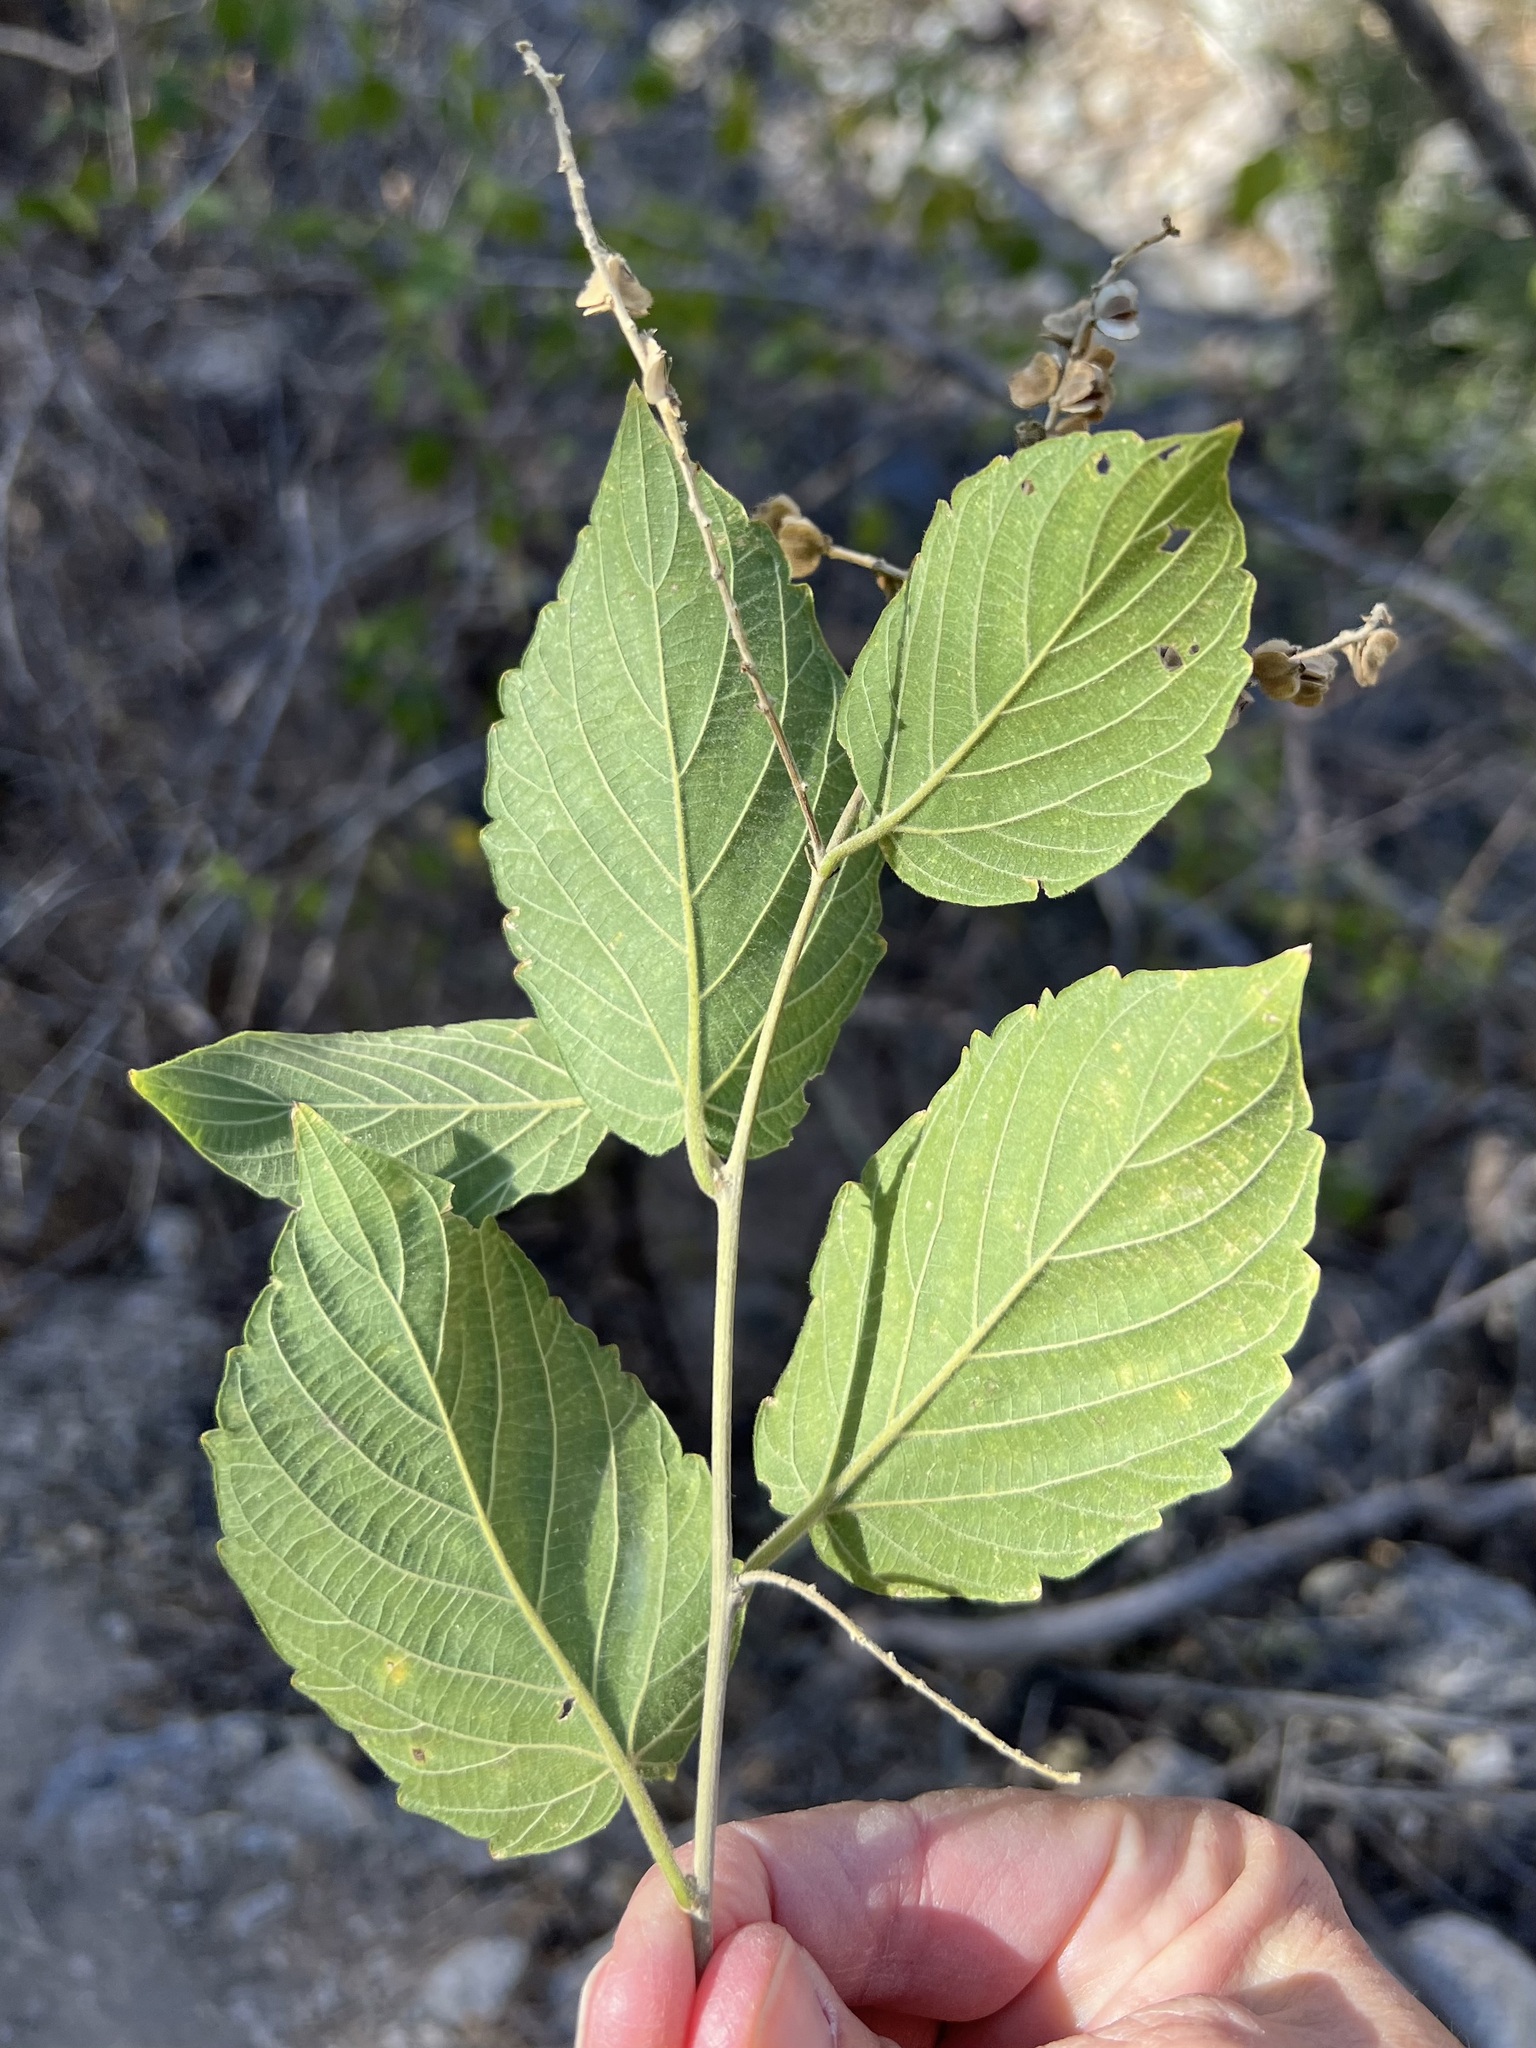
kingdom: Plantae
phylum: Tracheophyta
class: Magnoliopsida
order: Rosales
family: Rhamnaceae
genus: Gouania
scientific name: Gouania rosei
